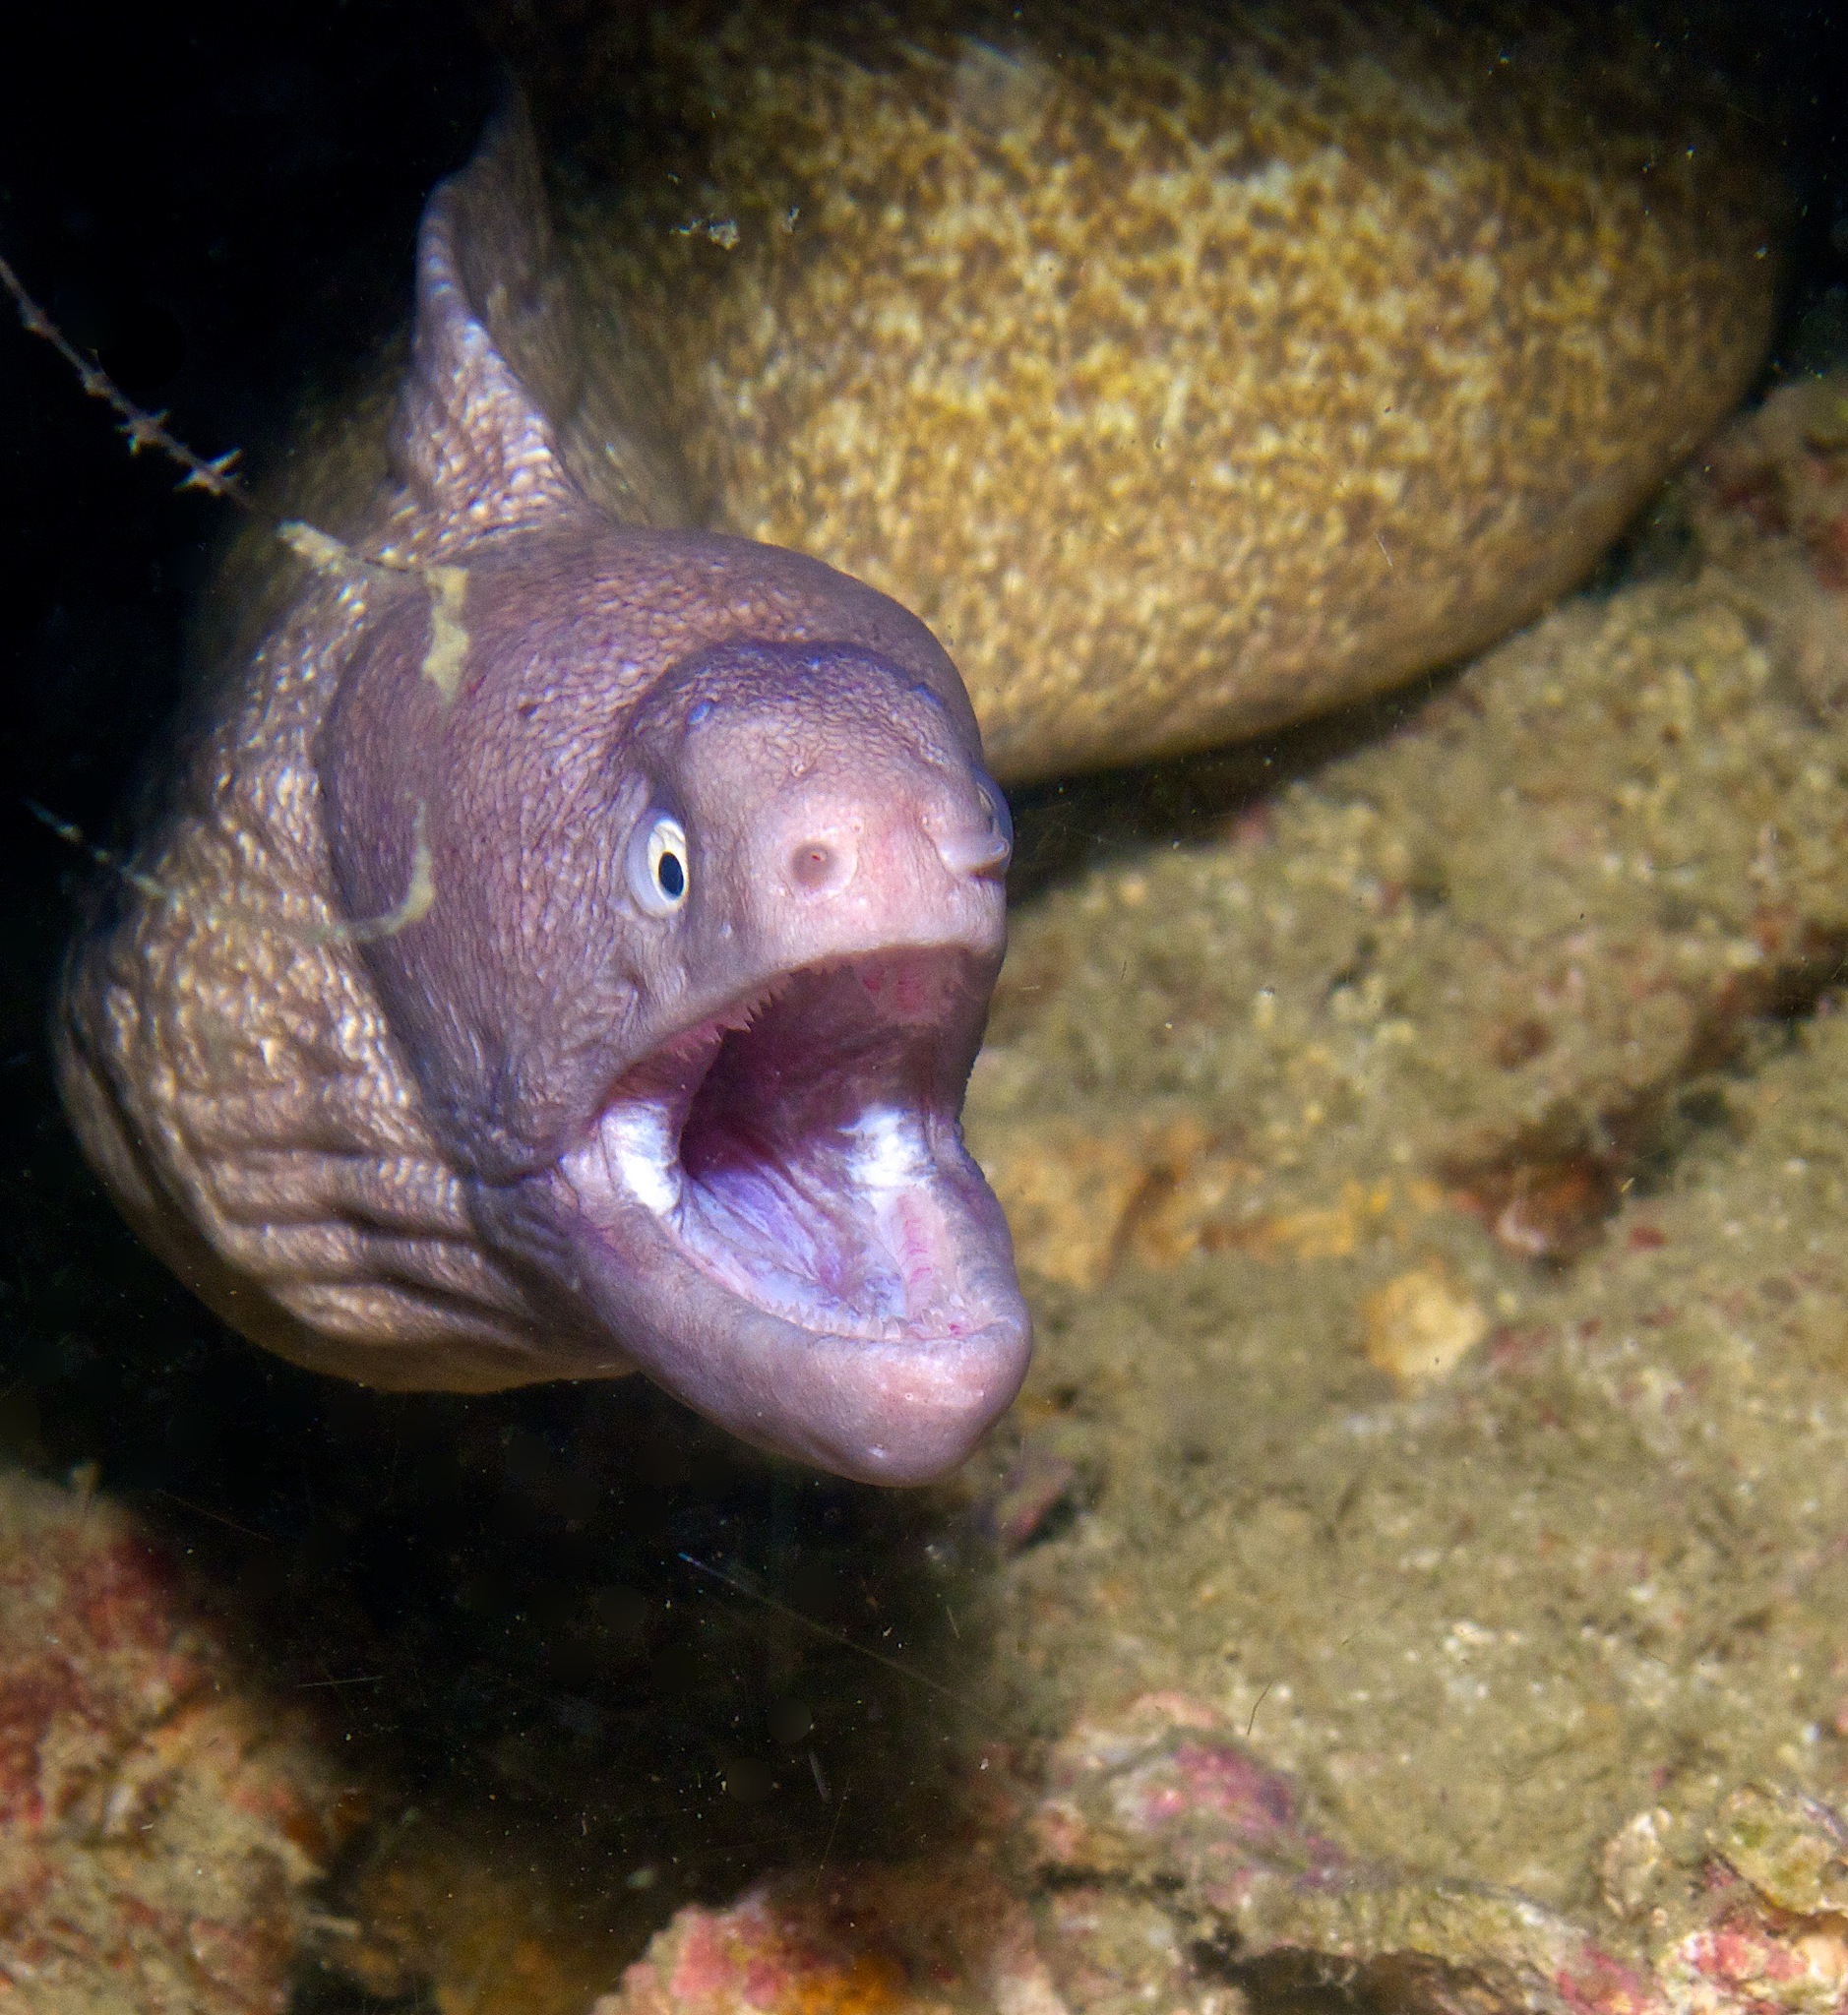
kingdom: Animalia
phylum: Chordata
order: Anguilliformes
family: Muraenidae
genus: Gymnothorax
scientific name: Gymnothorax thyrsoideus
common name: Greyface moray
